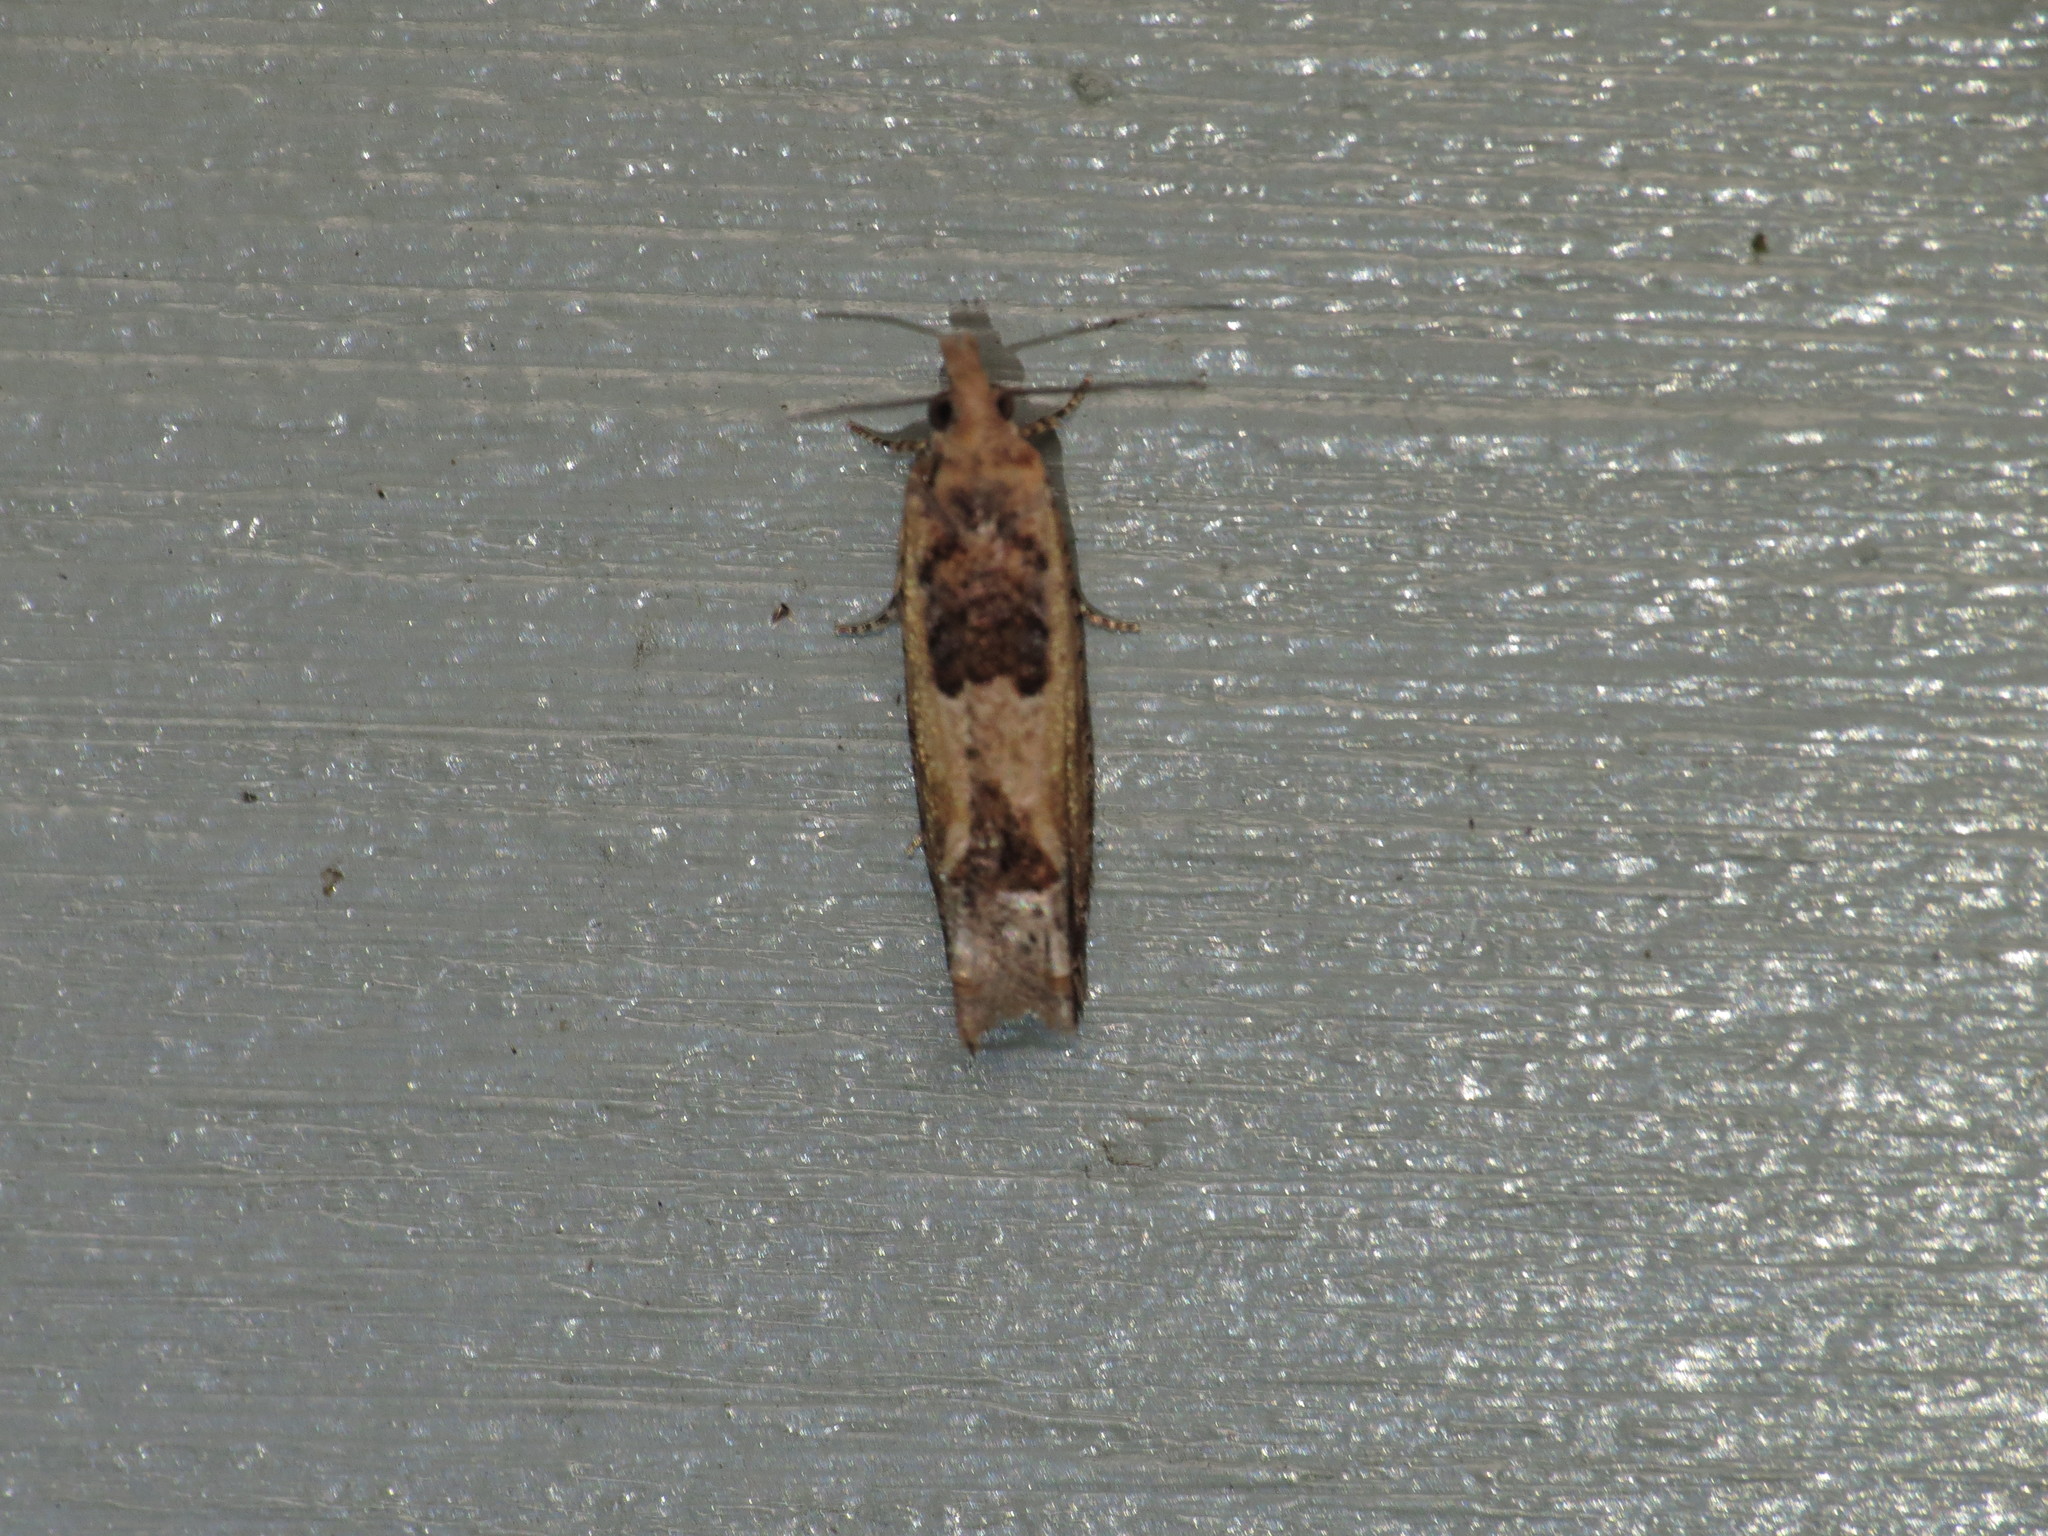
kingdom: Animalia
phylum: Arthropoda
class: Insecta
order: Lepidoptera
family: Tortricidae
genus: Crocidosema
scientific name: Crocidosema plebejana
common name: Southern bell
